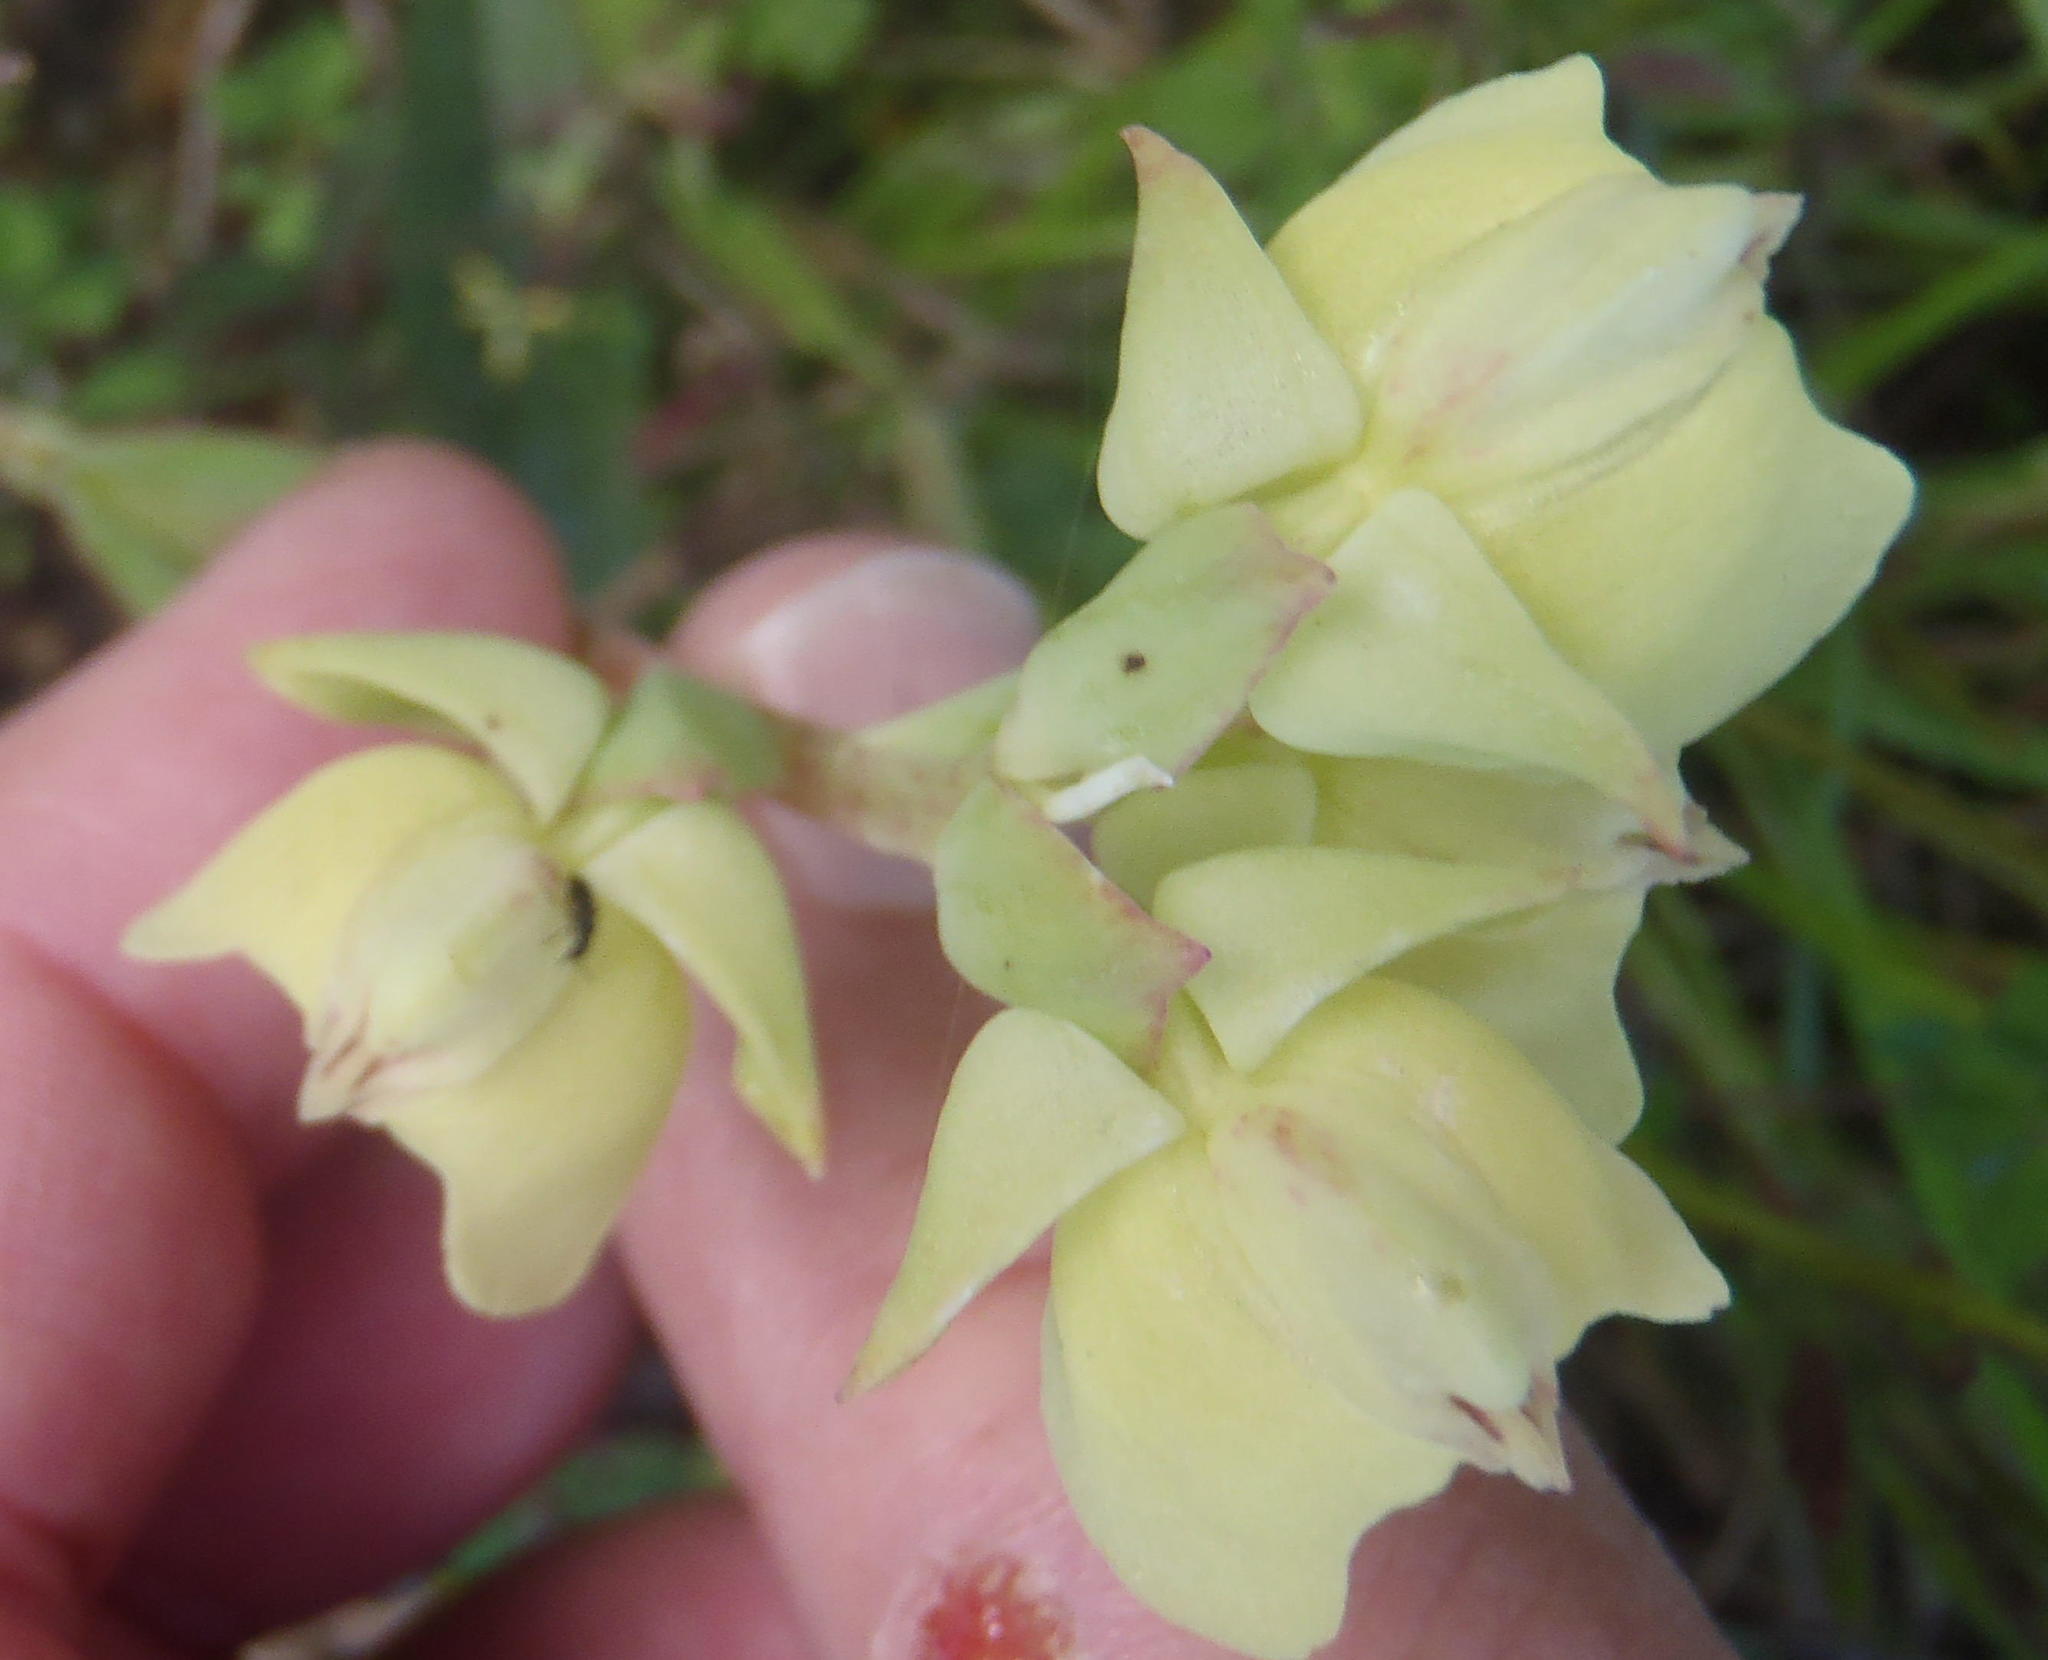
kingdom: Plantae
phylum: Tracheophyta
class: Liliopsida
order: Asparagales
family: Orchidaceae
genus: Pterygodium
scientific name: Pterygodium catholicum
